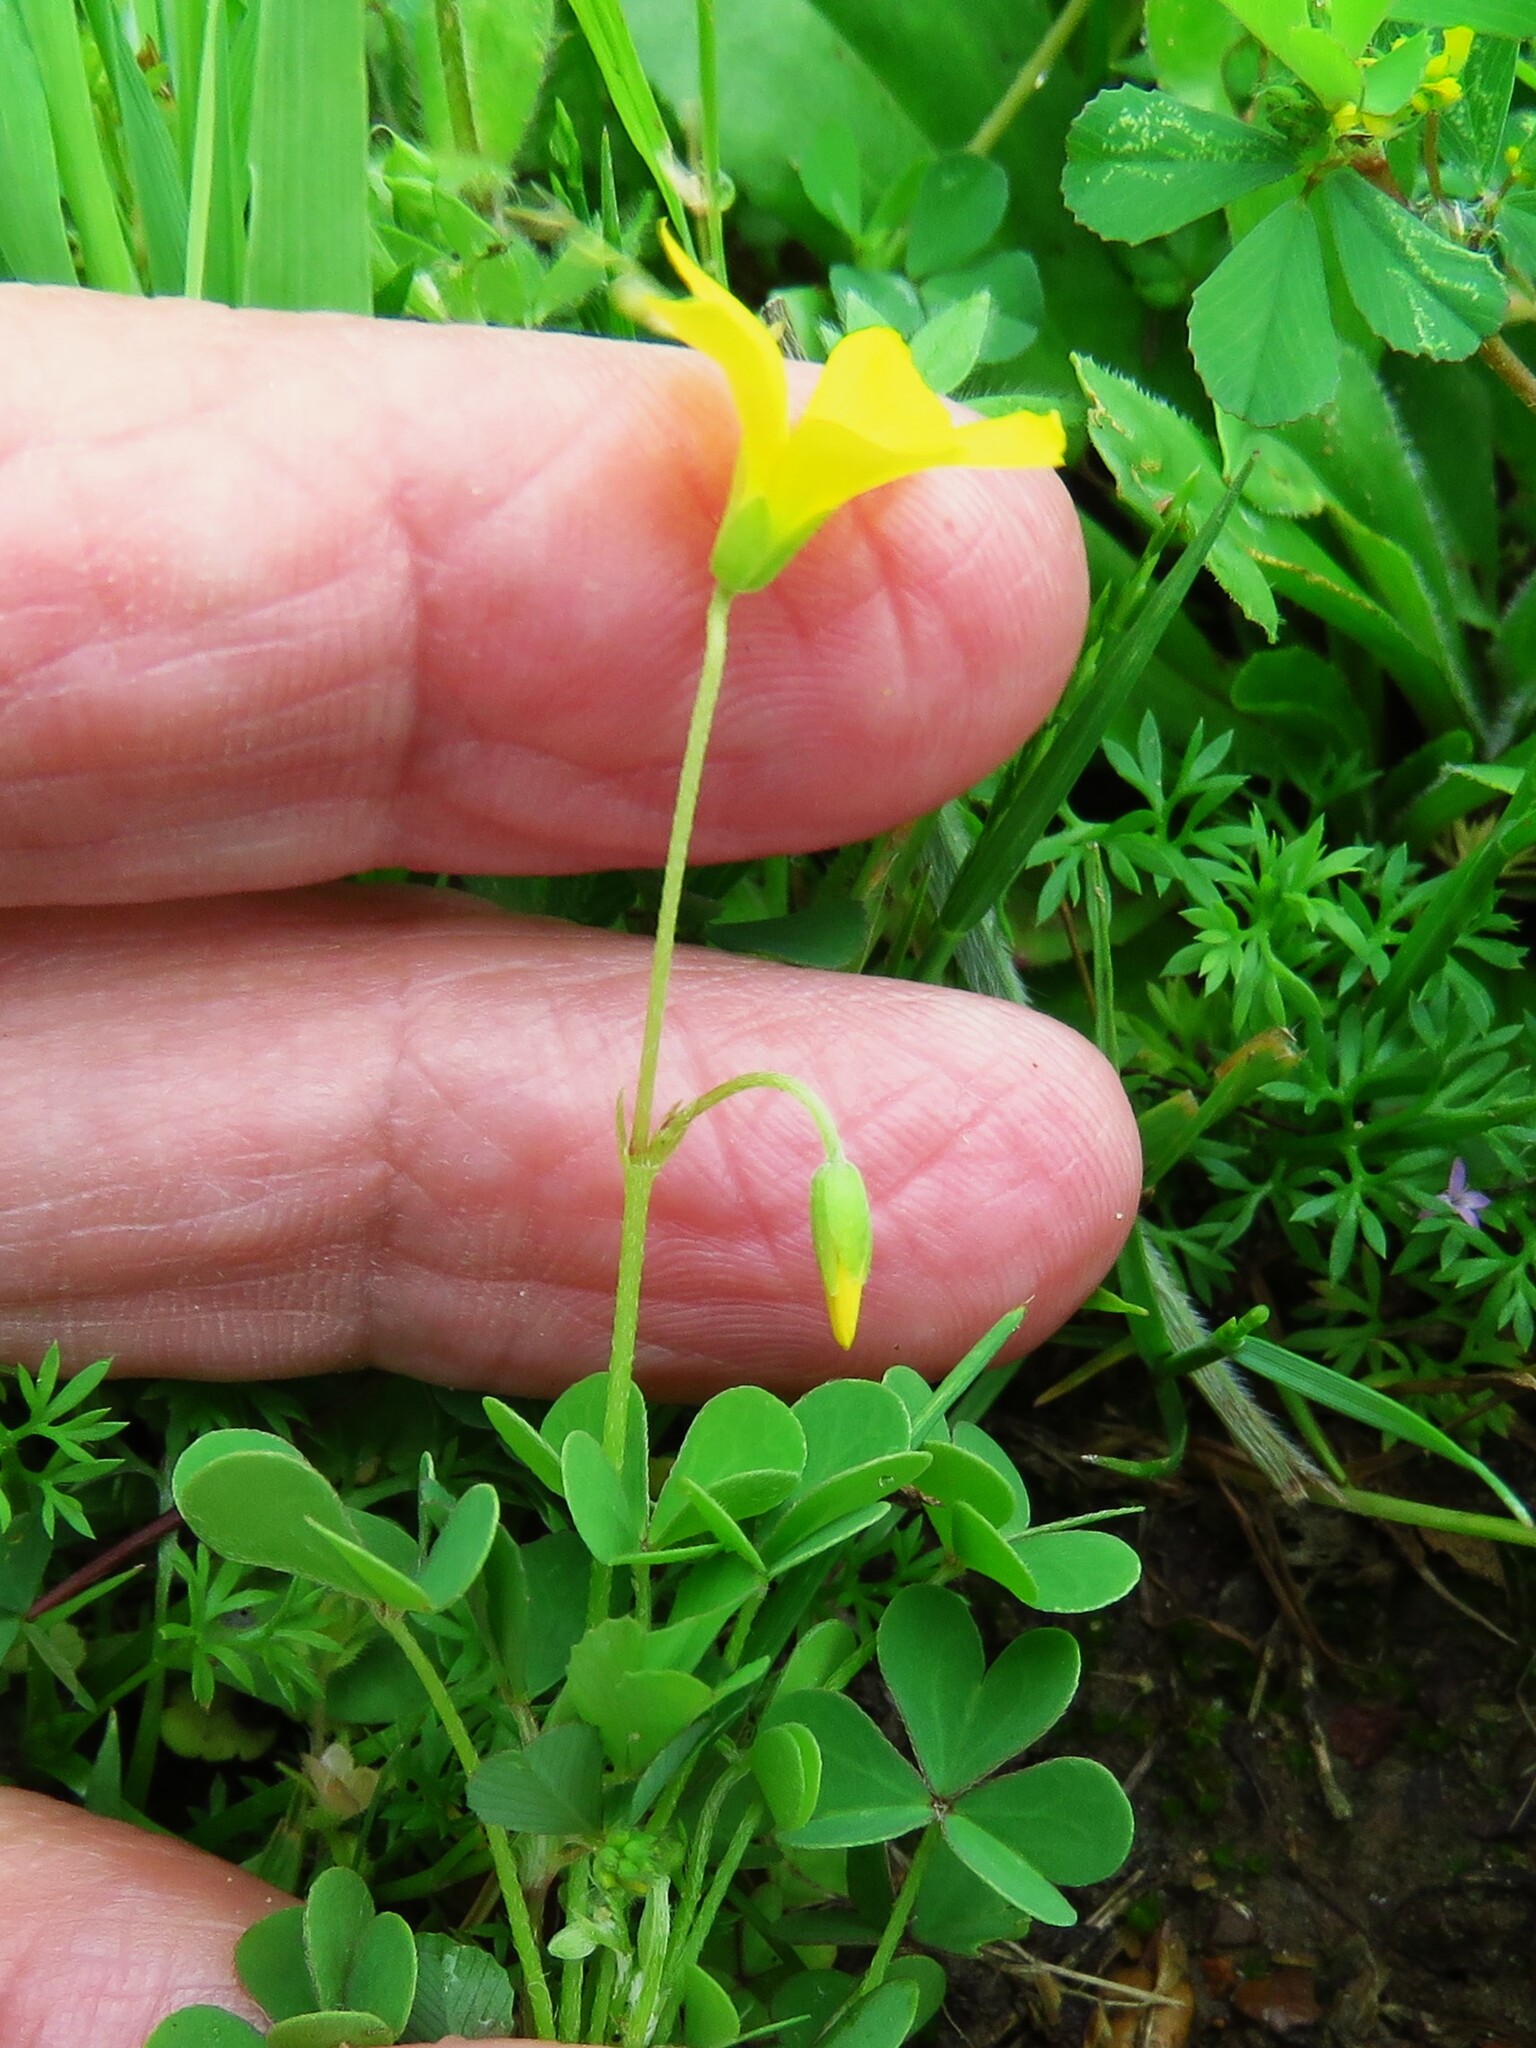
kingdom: Plantae
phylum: Tracheophyta
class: Magnoliopsida
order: Oxalidales
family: Oxalidaceae
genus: Oxalis
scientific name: Oxalis dillenii
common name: Sussex yellow-sorrel
